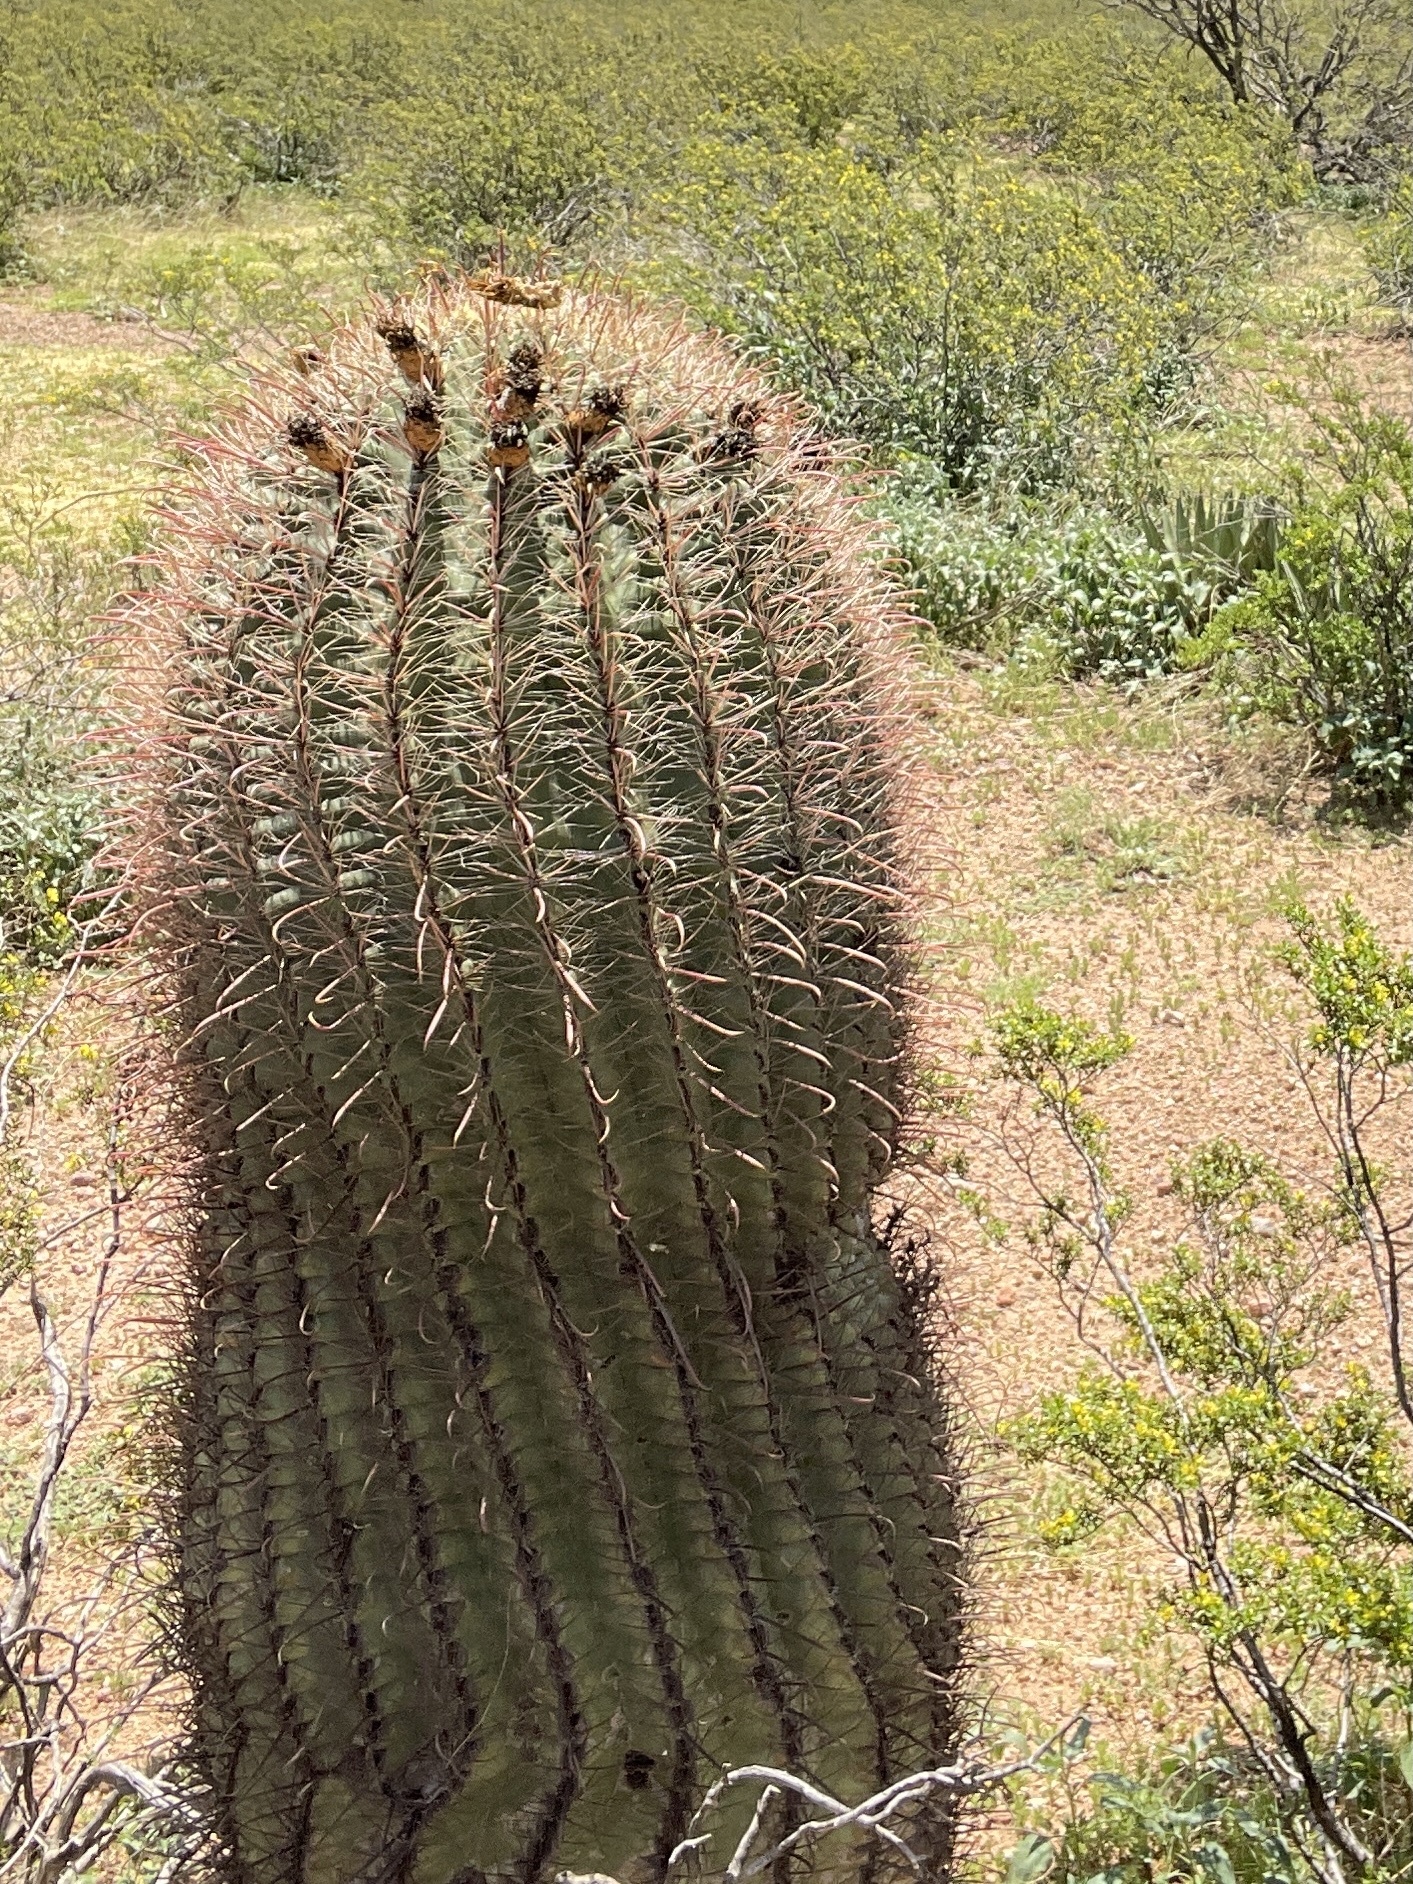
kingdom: Plantae
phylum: Tracheophyta
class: Magnoliopsida
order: Caryophyllales
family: Cactaceae
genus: Ferocactus
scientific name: Ferocactus wislizeni
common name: Candy barrel cactus
